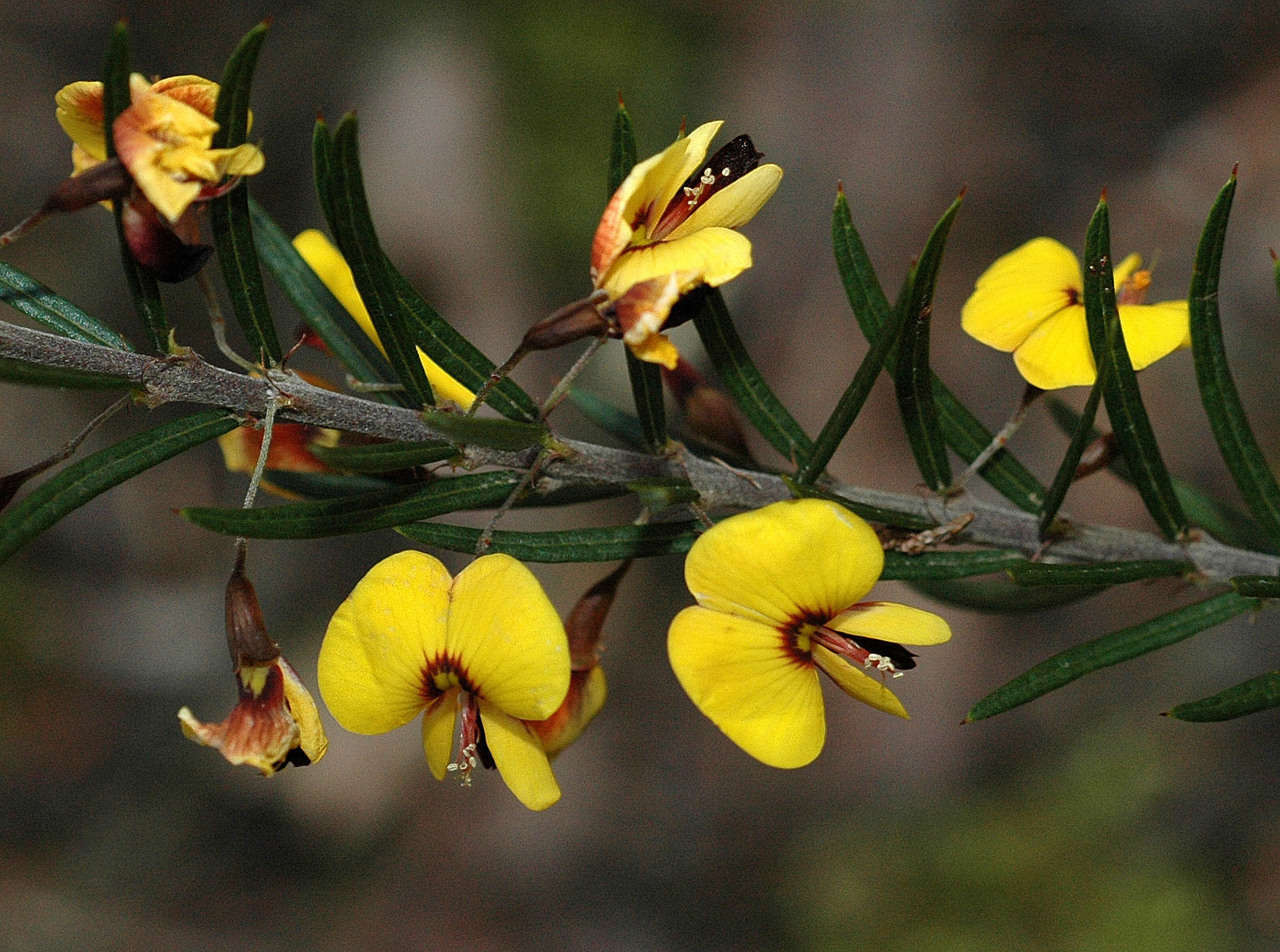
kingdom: Plantae
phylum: Tracheophyta
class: Magnoliopsida
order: Fabales
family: Fabaceae
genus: Bossiaea
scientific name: Bossiaea rosmarinifolia
